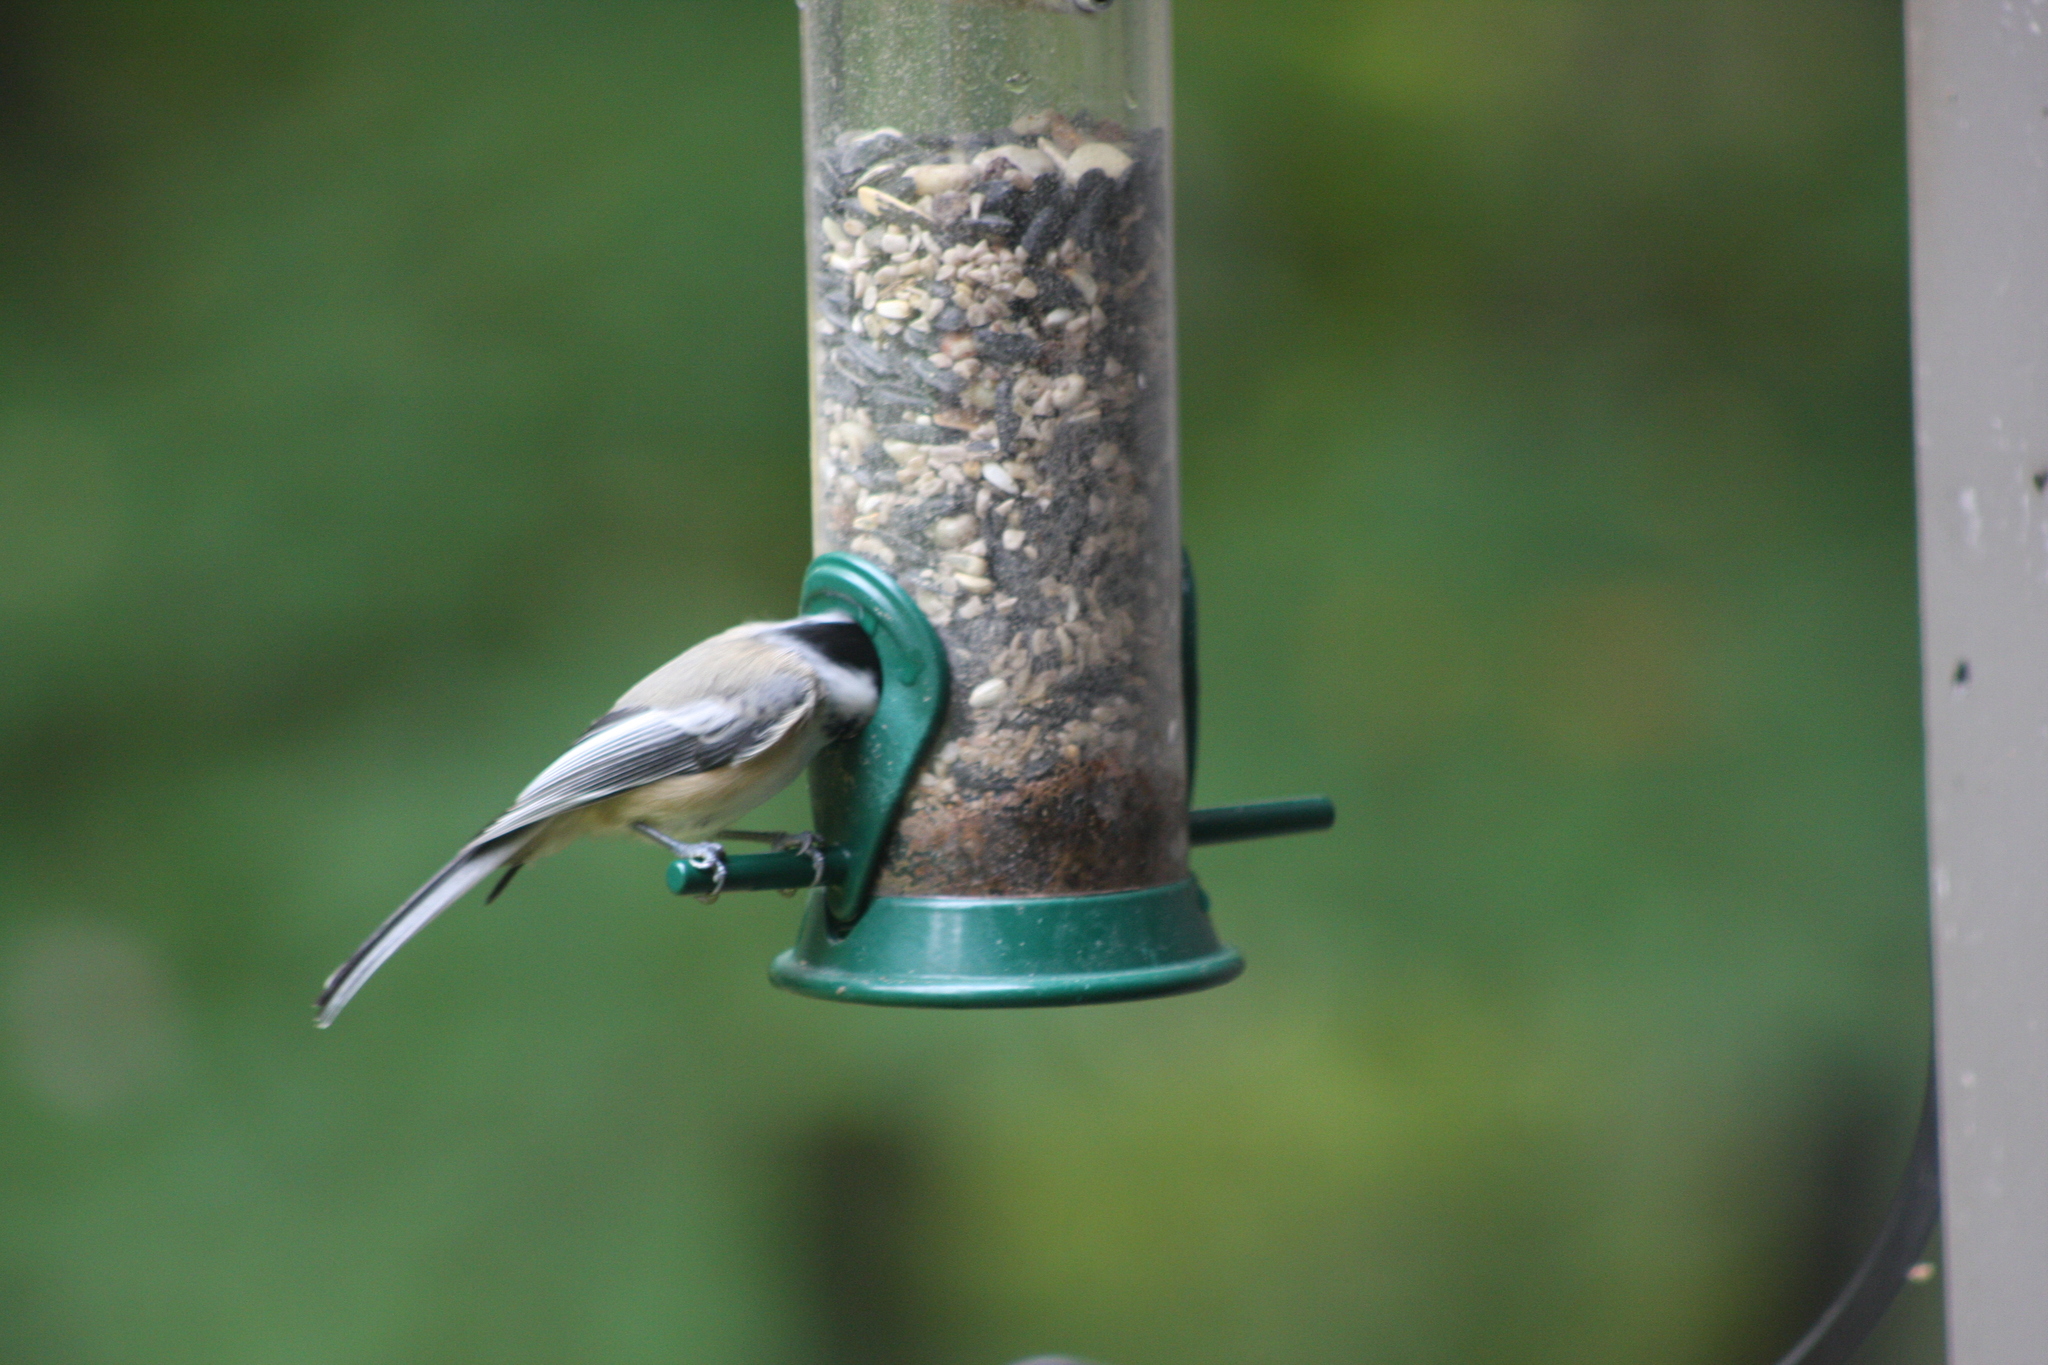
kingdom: Animalia
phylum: Chordata
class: Aves
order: Passeriformes
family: Paridae
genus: Poecile
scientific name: Poecile atricapillus
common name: Black-capped chickadee
